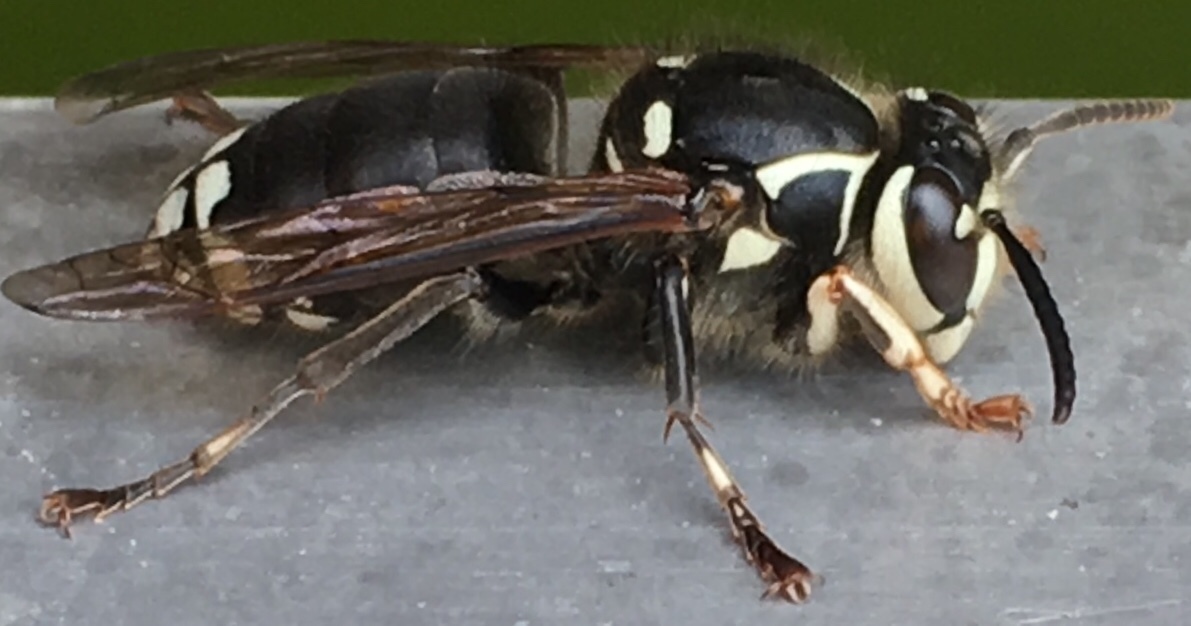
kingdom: Animalia
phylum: Arthropoda
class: Insecta
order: Hymenoptera
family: Vespidae
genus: Dolichovespula
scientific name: Dolichovespula maculata
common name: Bald-faced hornet
